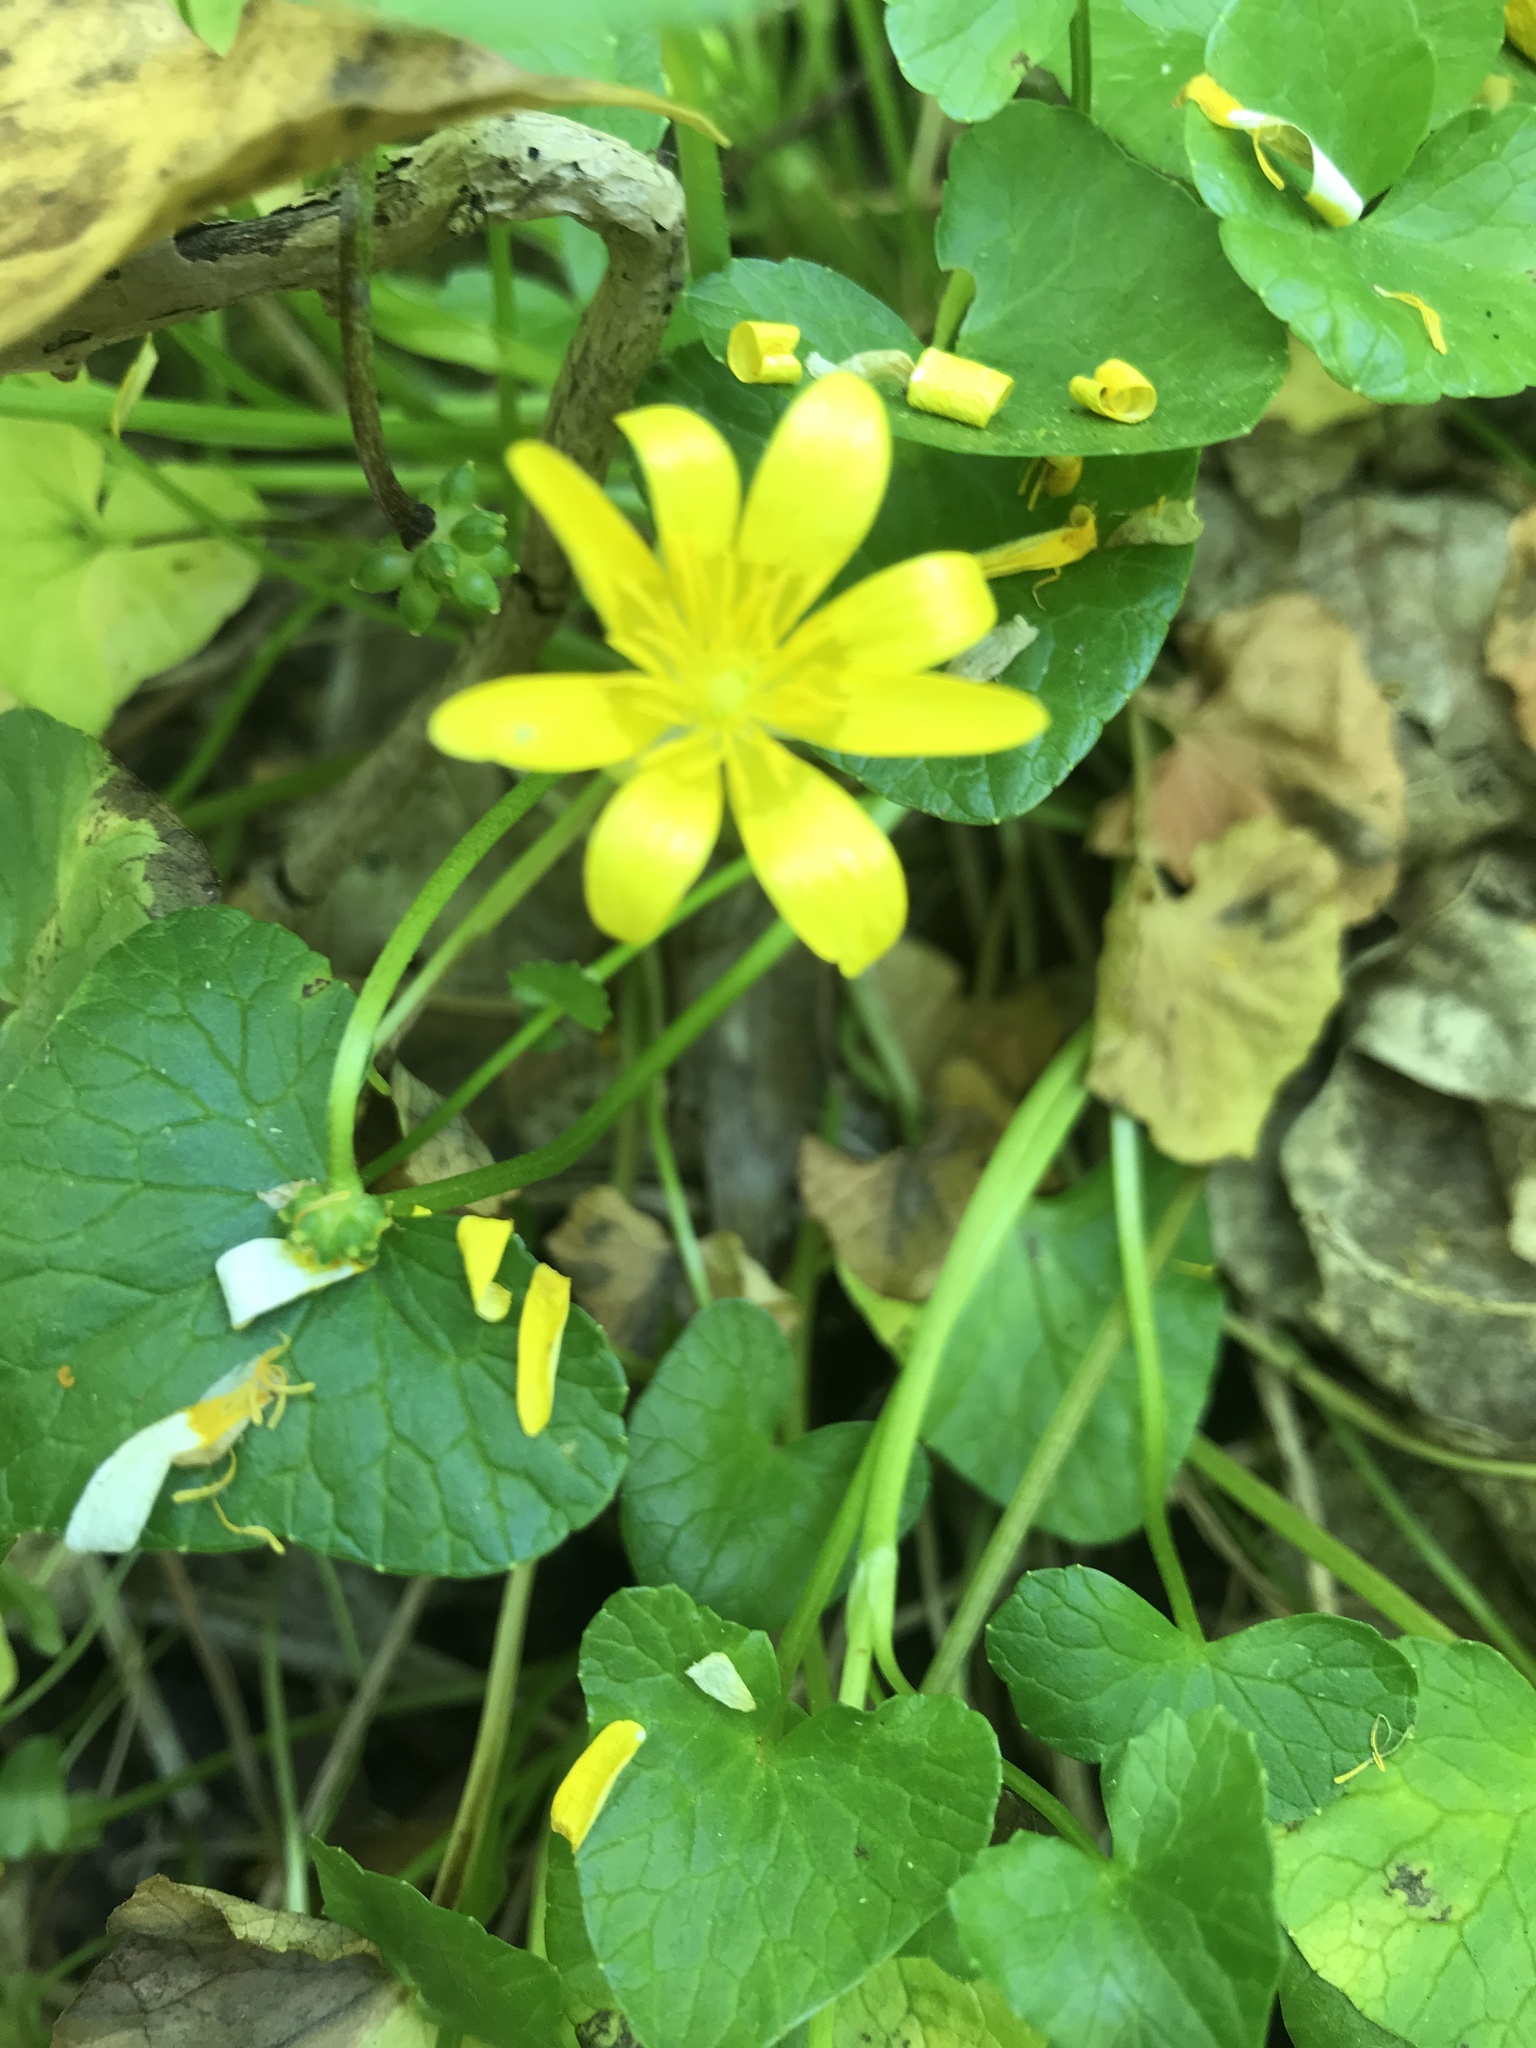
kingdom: Plantae
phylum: Tracheophyta
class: Magnoliopsida
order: Ranunculales
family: Ranunculaceae
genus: Ficaria
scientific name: Ficaria verna
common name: Lesser celandine
